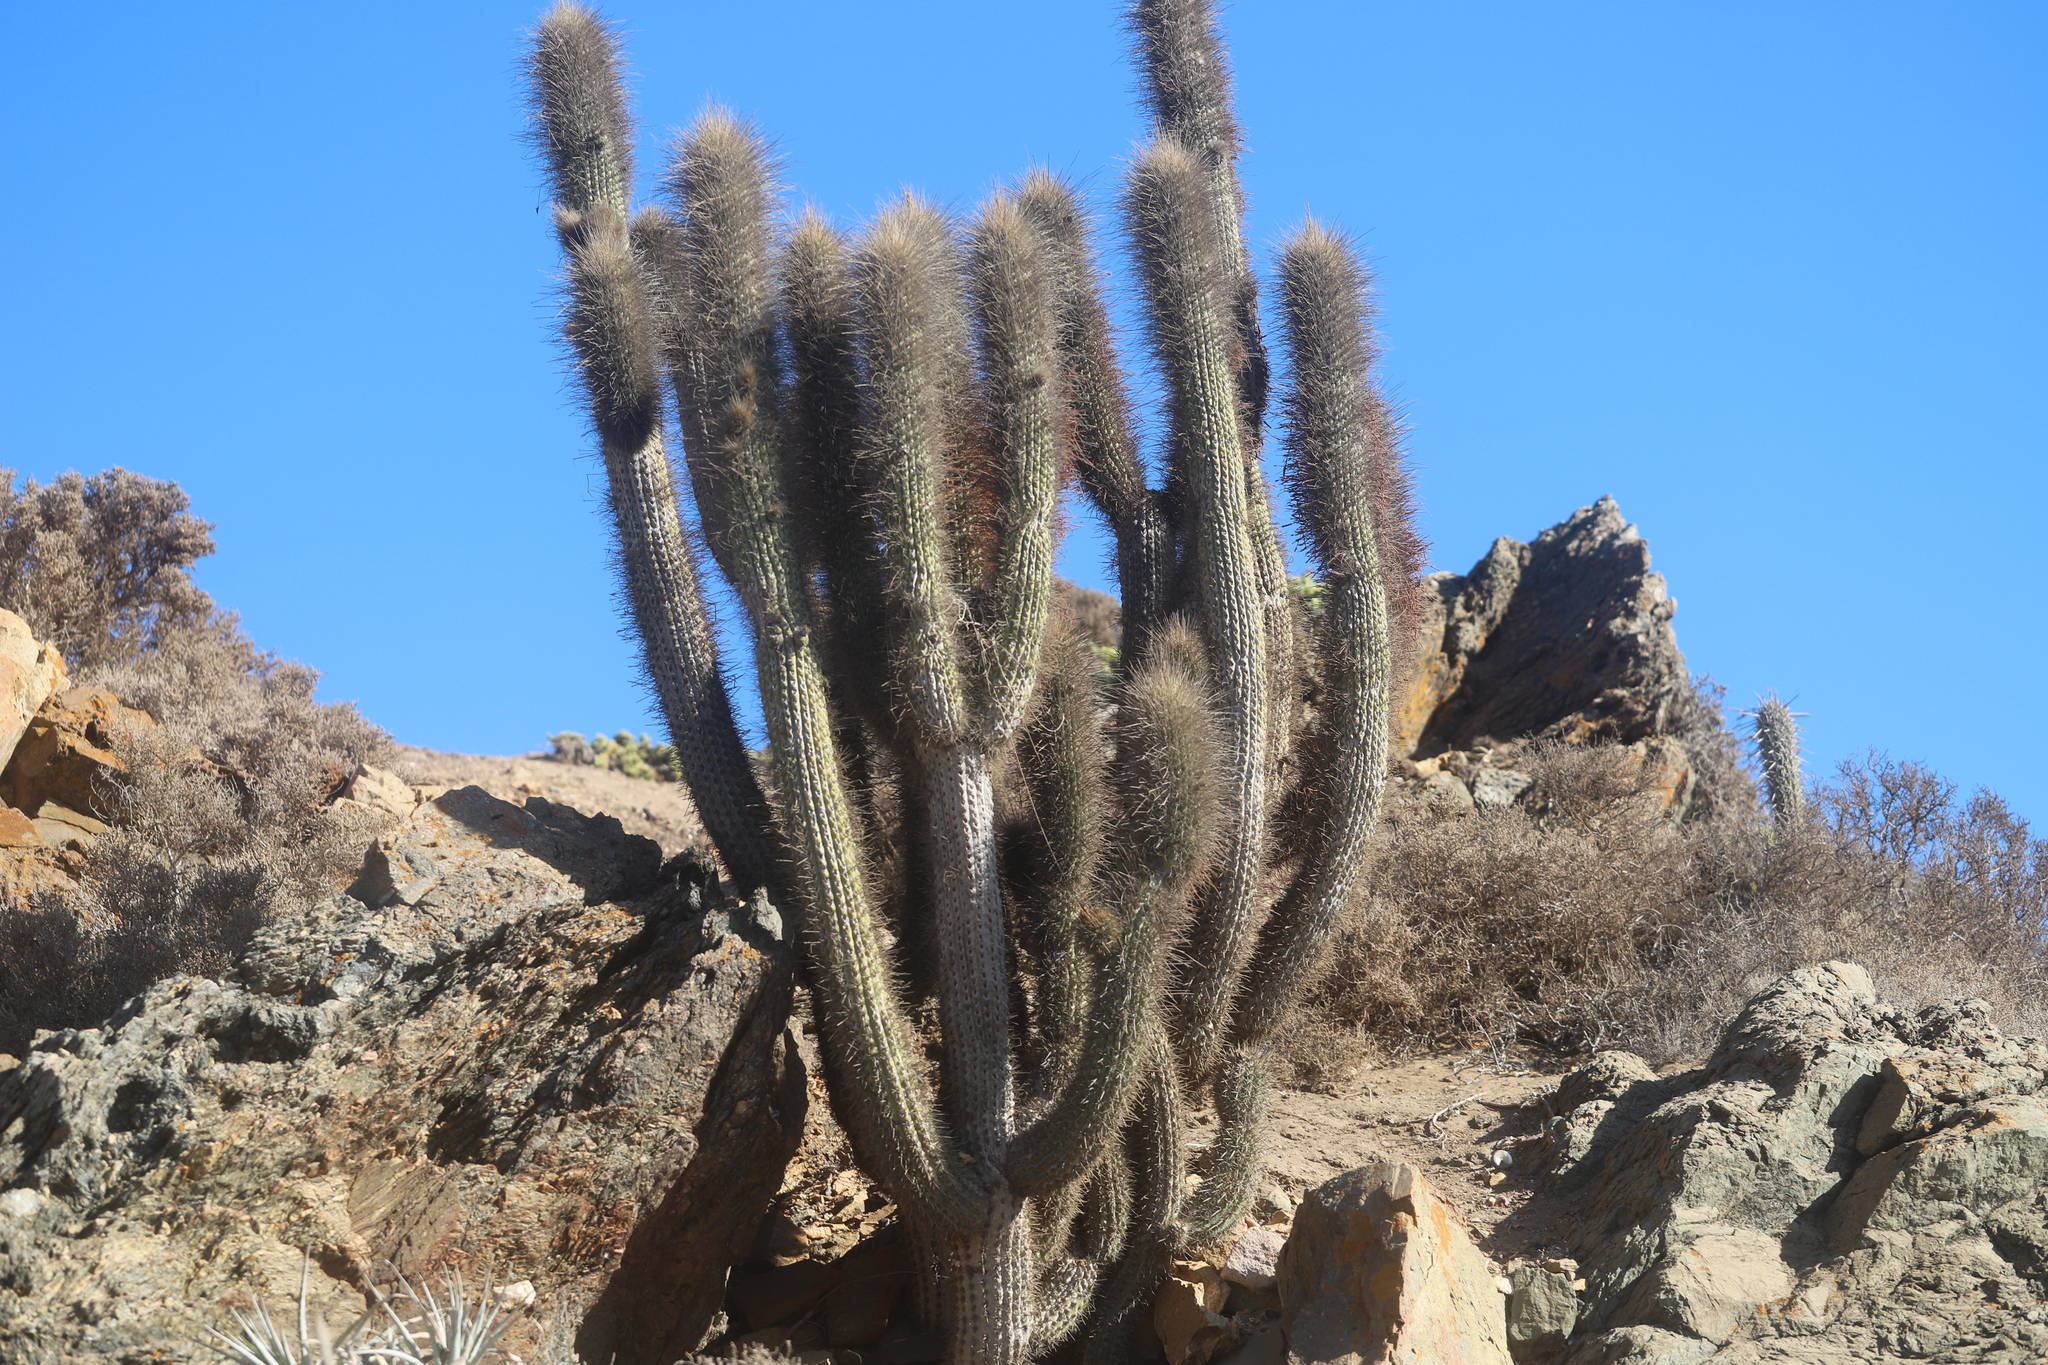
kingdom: Plantae
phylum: Tracheophyta
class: Magnoliopsida
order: Caryophyllales
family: Cactaceae
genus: Eulychnia
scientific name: Eulychnia acida
